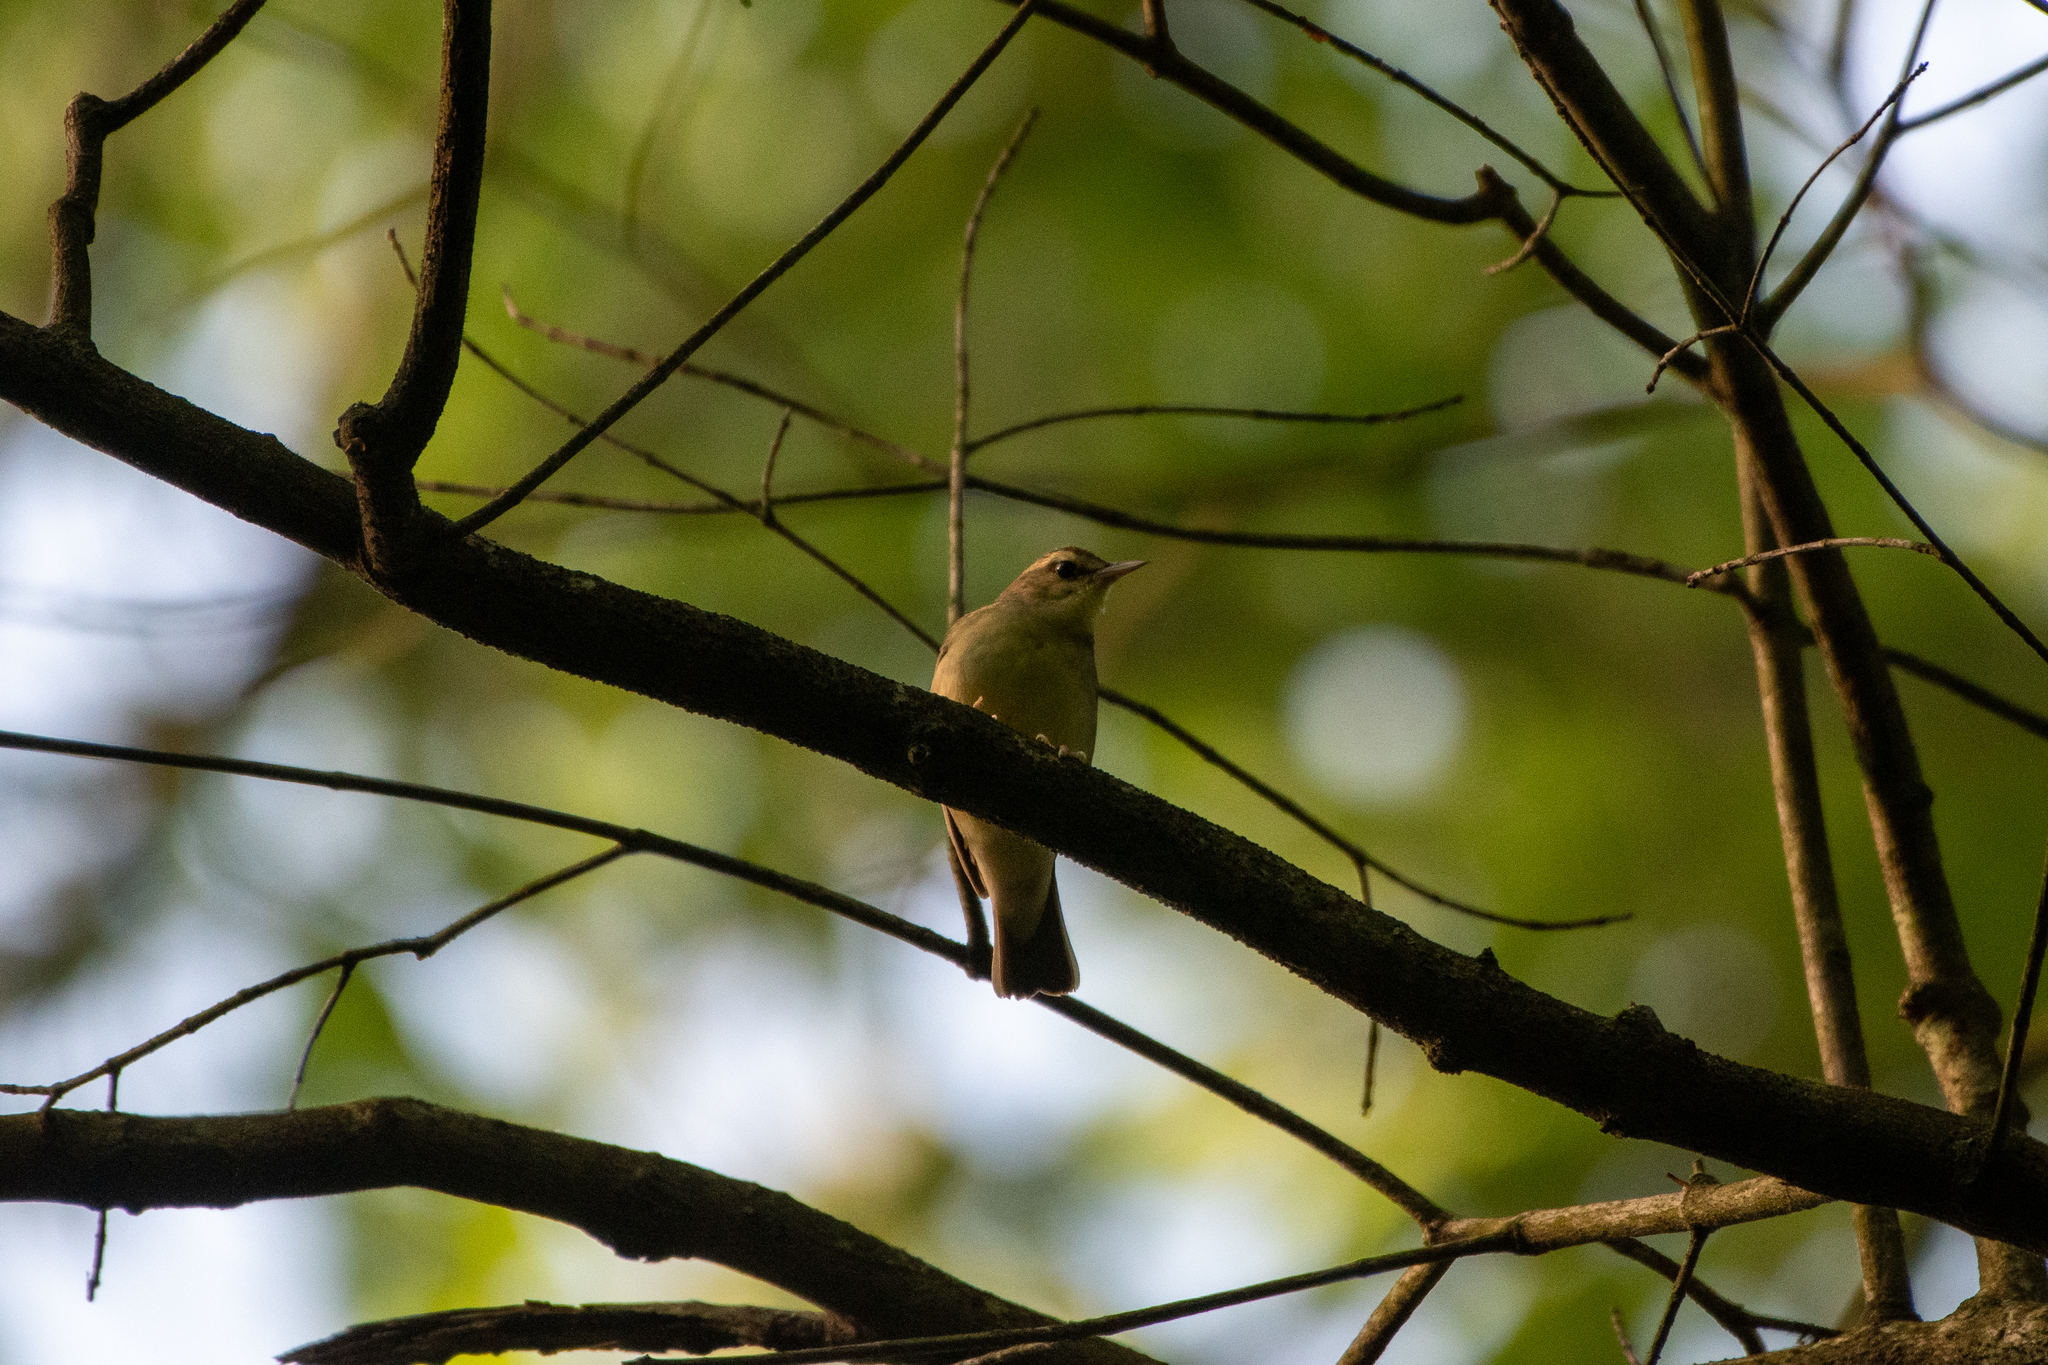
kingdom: Animalia
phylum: Chordata
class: Aves
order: Passeriformes
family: Parulidae
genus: Limnothlypis
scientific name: Limnothlypis swainsonii
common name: Swainson's warbler
